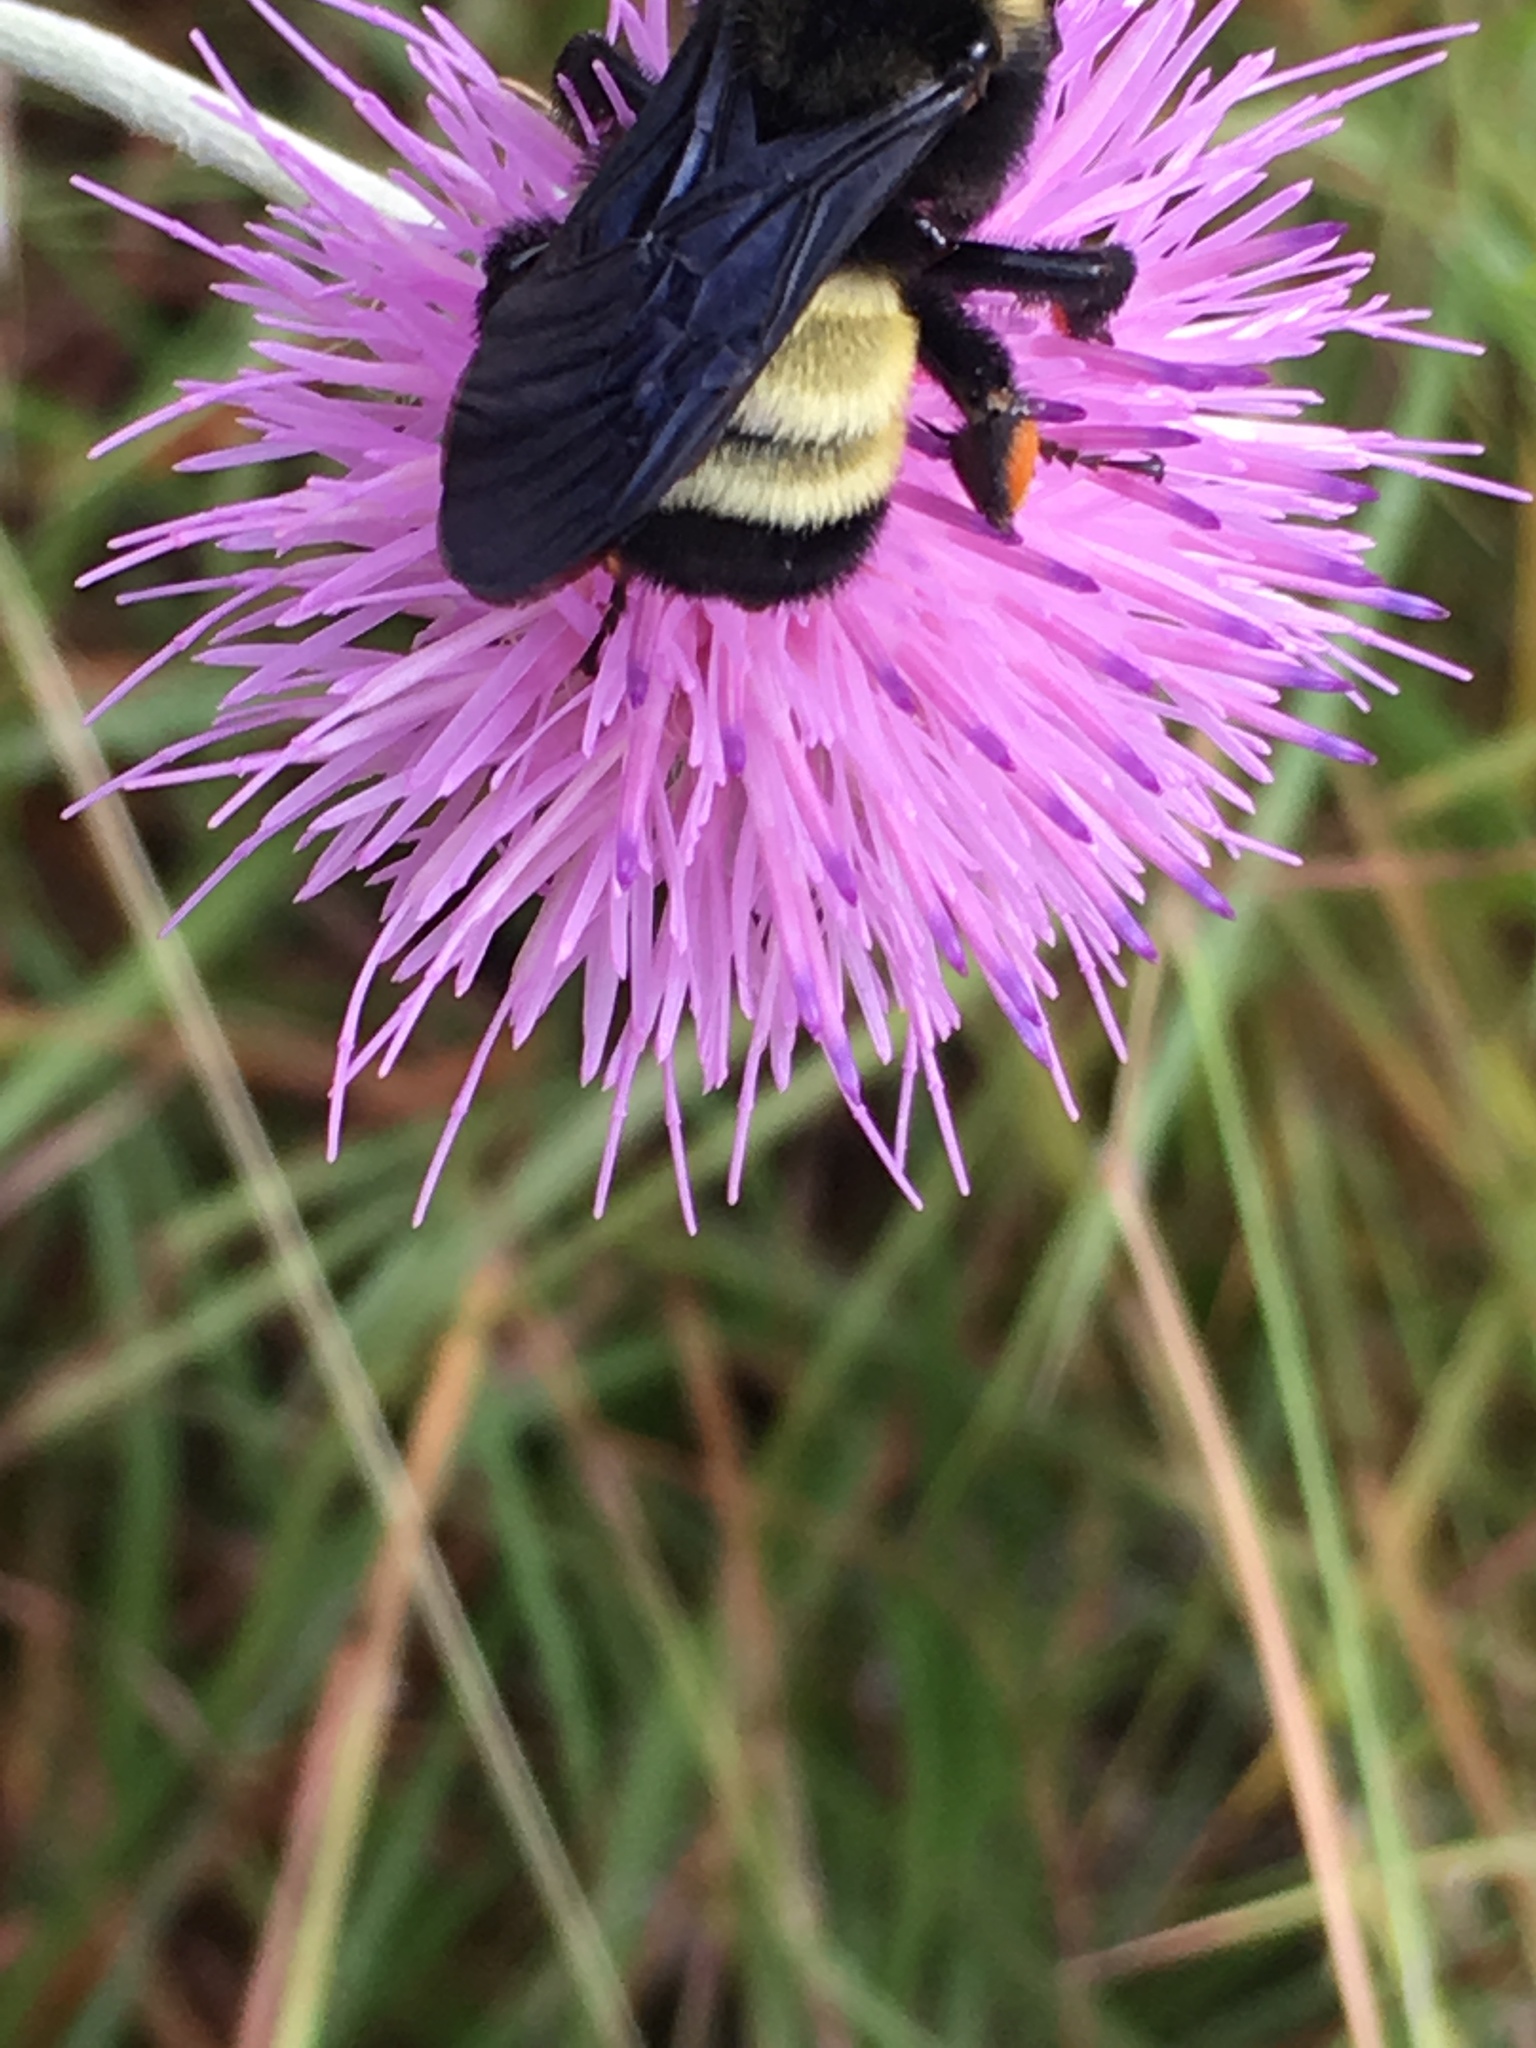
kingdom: Animalia
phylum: Arthropoda
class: Insecta
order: Hymenoptera
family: Apidae
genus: Bombus
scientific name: Bombus pensylvanicus
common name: Bumble bee
